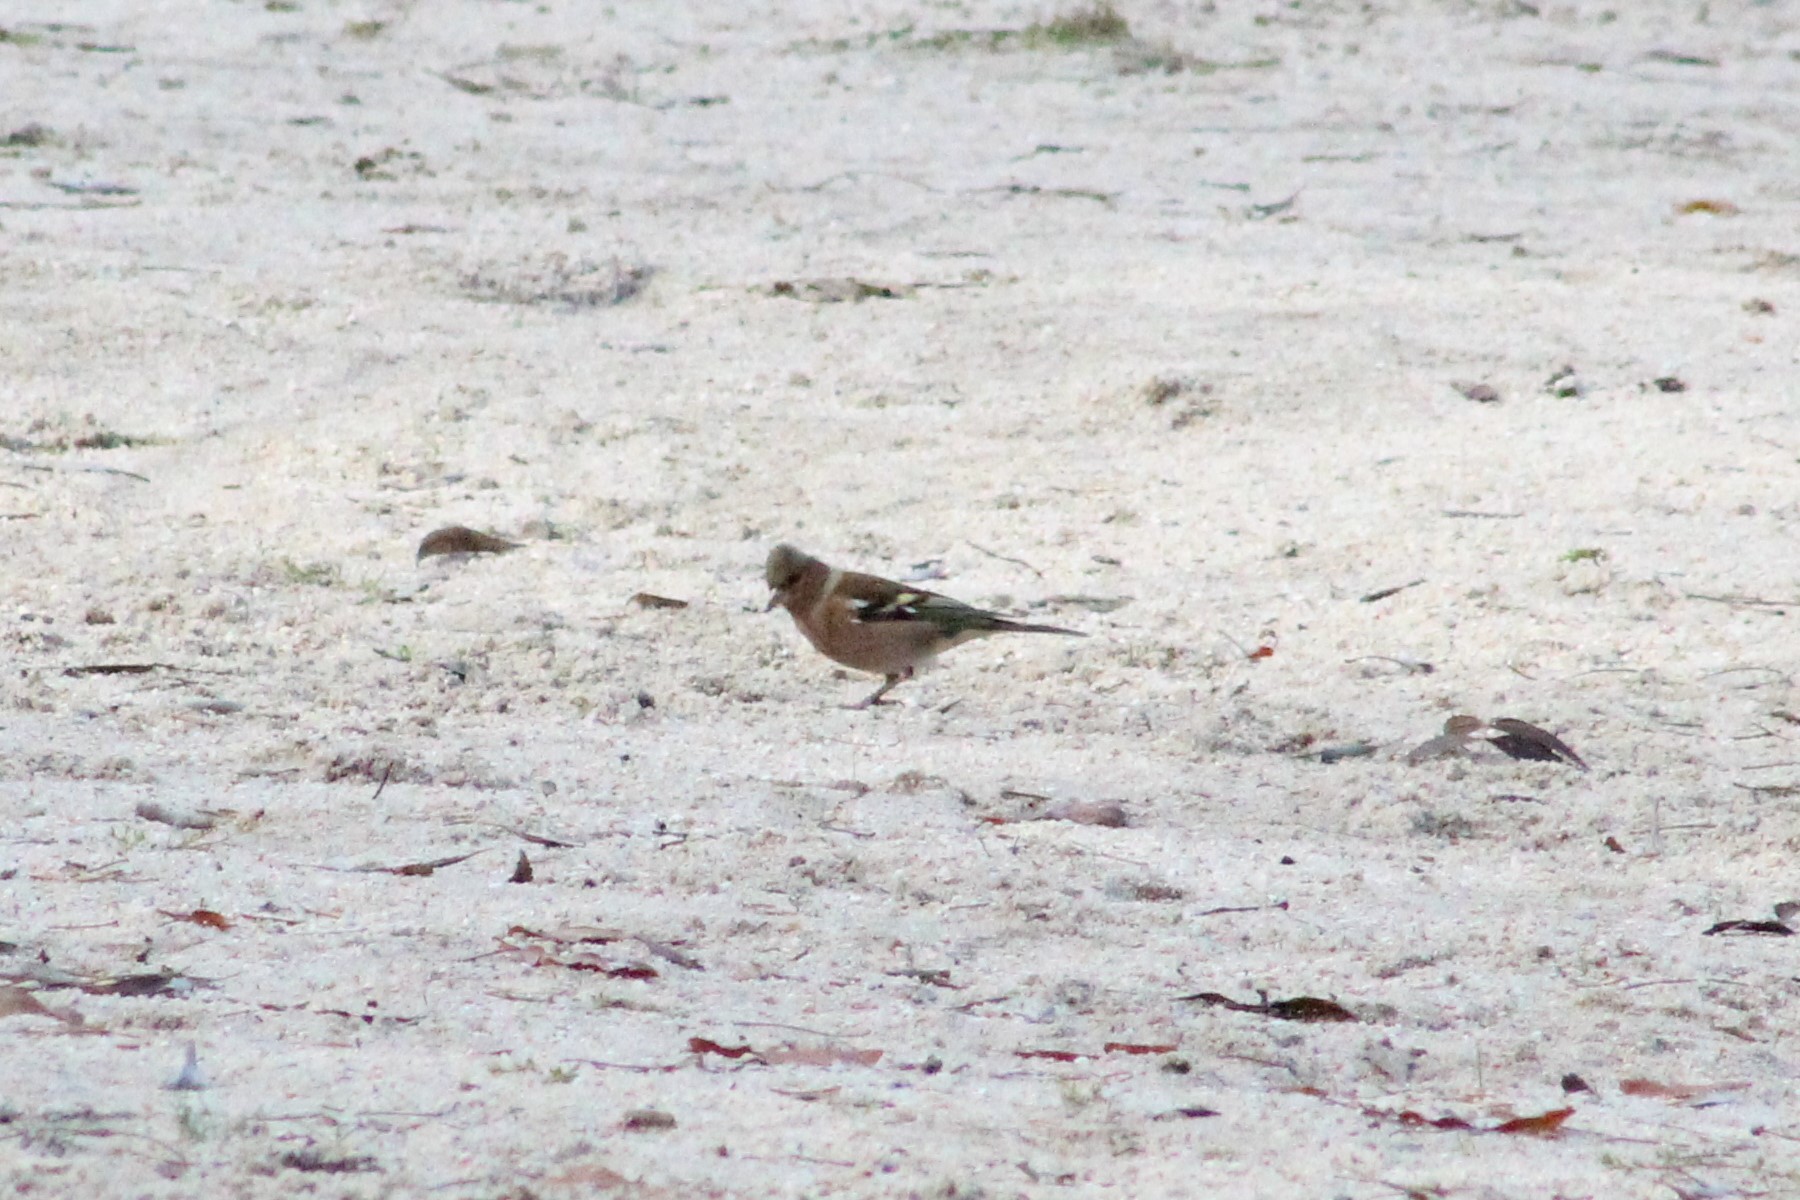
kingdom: Animalia
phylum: Chordata
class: Aves
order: Passeriformes
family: Fringillidae
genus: Fringilla
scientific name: Fringilla coelebs
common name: Common chaffinch
